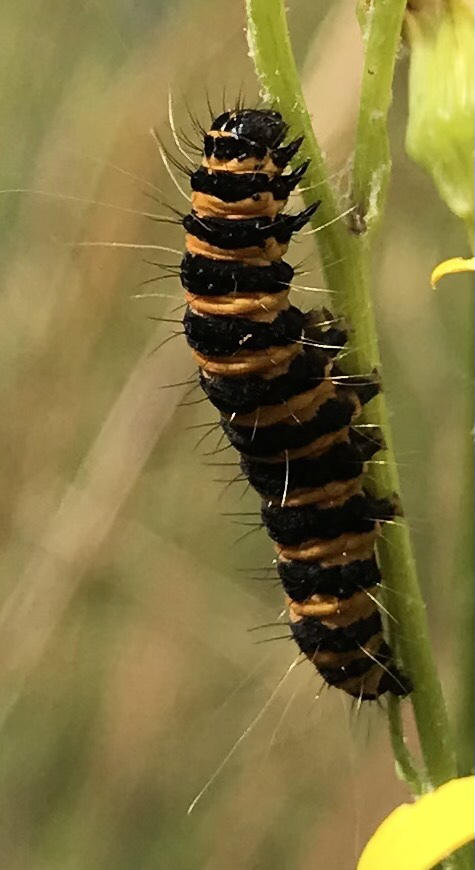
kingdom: Animalia
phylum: Arthropoda
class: Insecta
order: Lepidoptera
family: Erebidae
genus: Tyria
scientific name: Tyria jacobaeae
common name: Cinnabar
